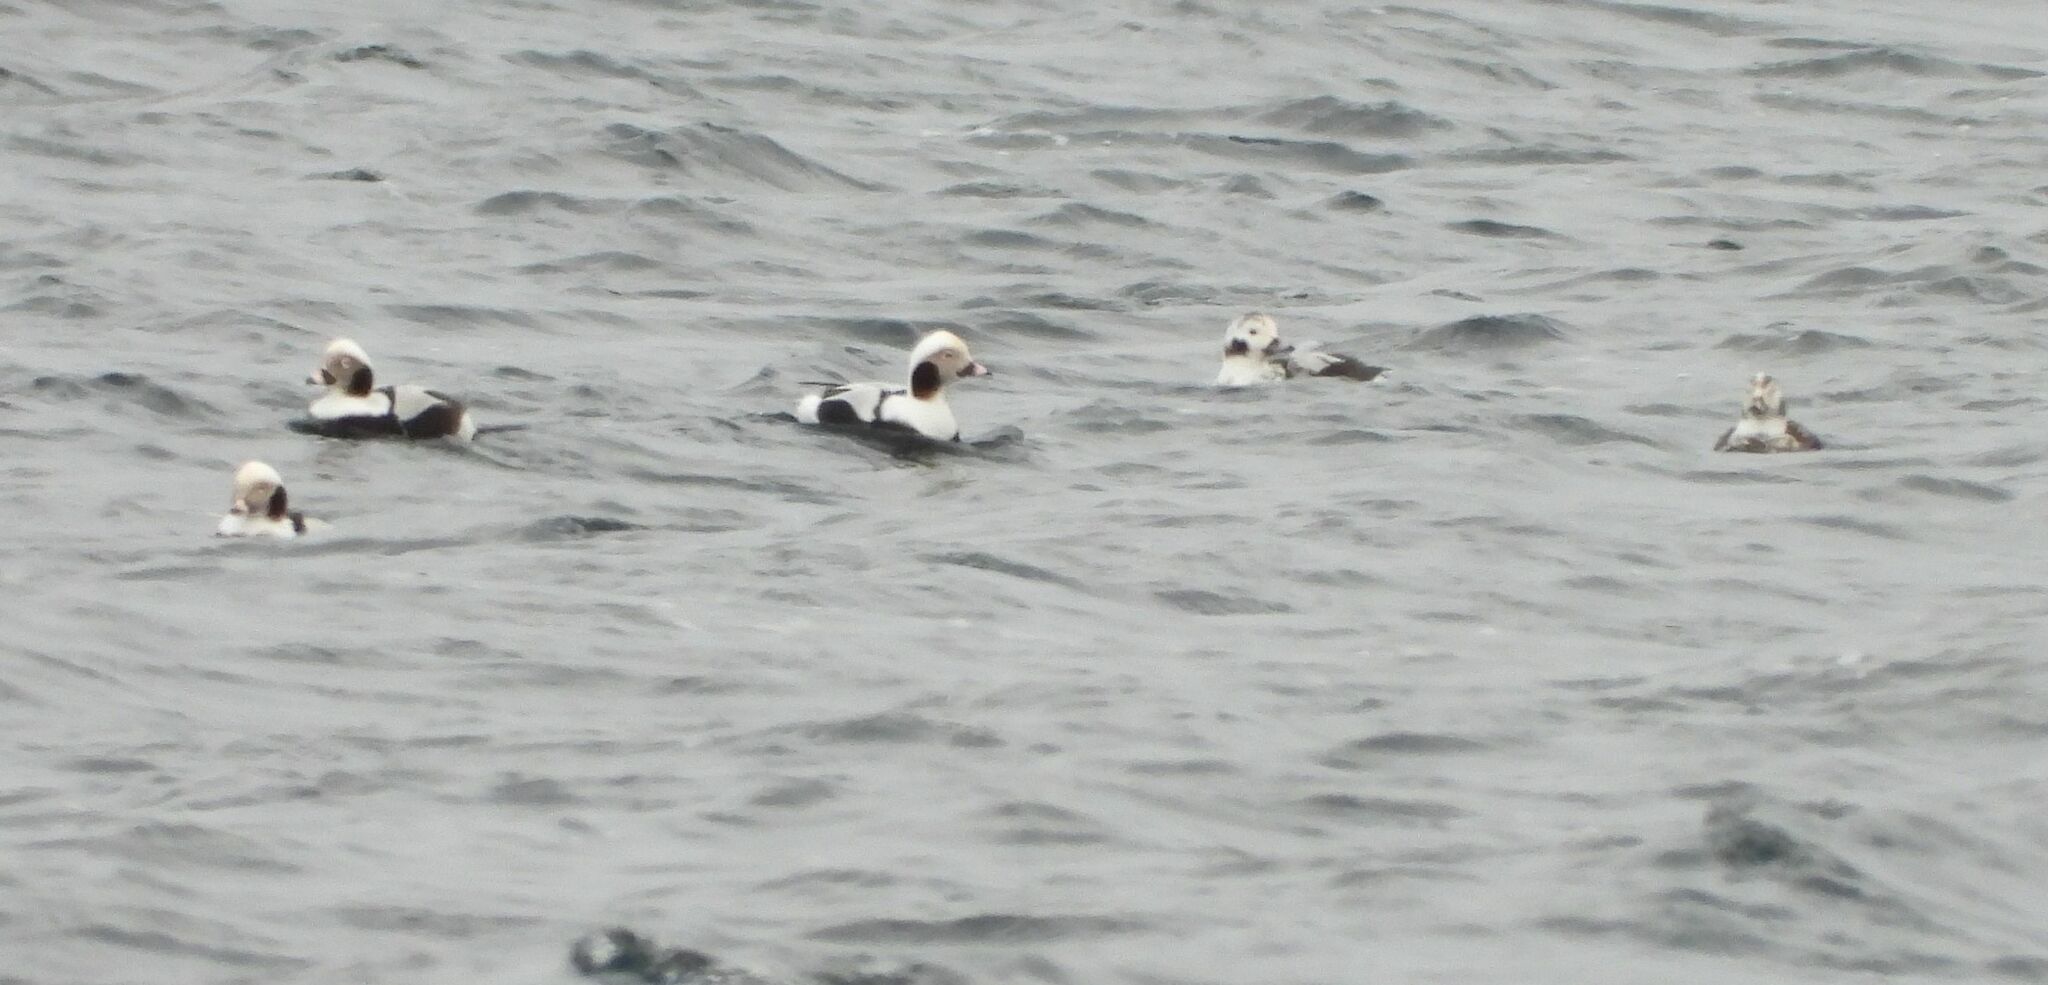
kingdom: Animalia
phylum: Chordata
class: Aves
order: Anseriformes
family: Anatidae
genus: Clangula
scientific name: Clangula hyemalis
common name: Long-tailed duck
